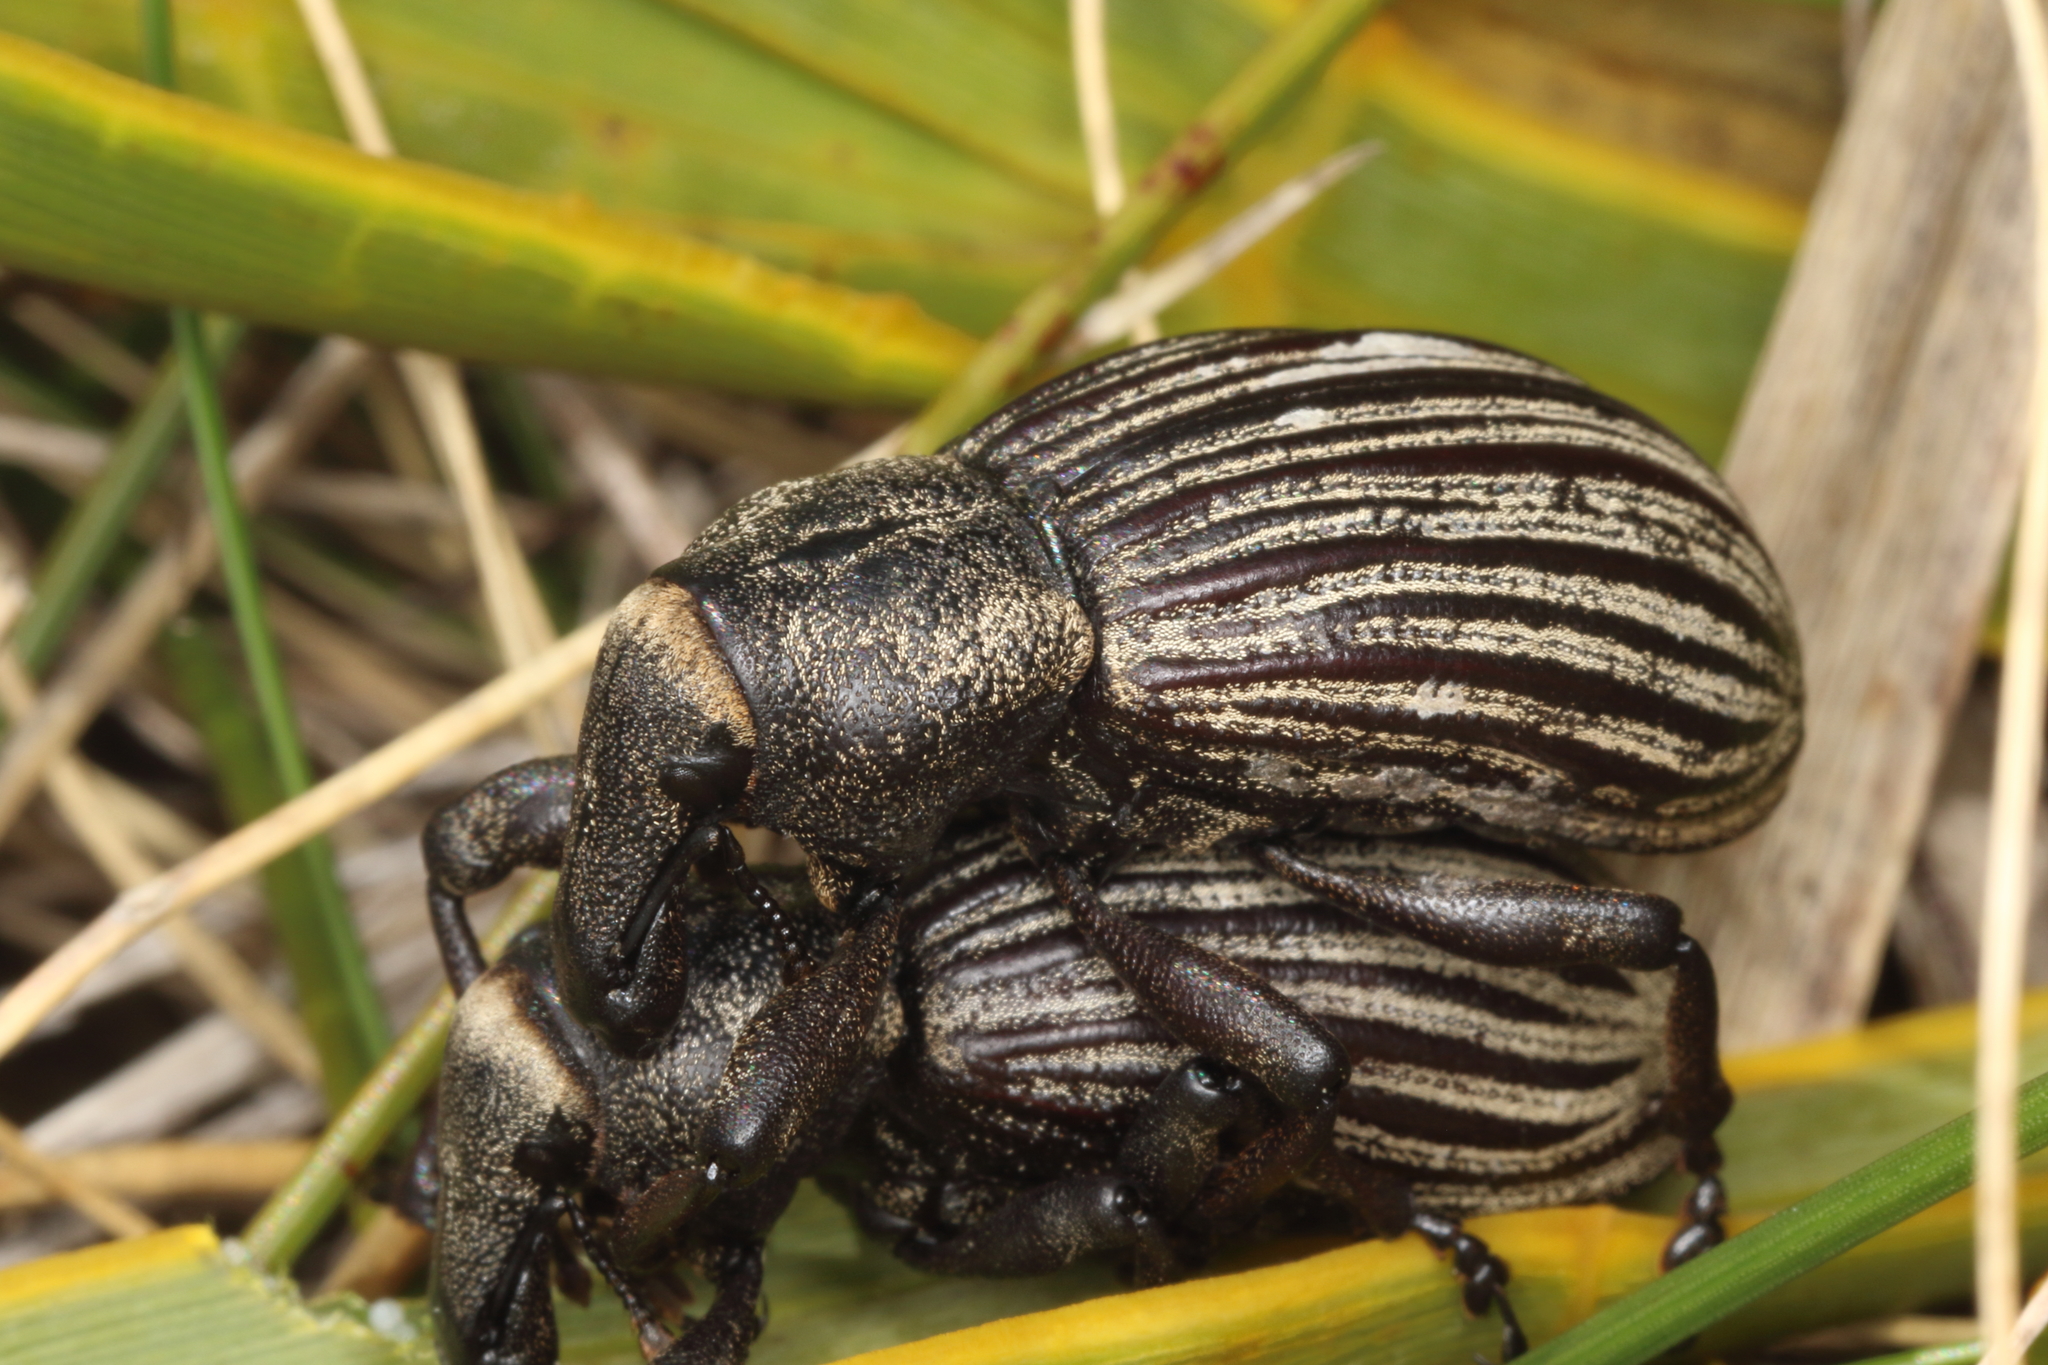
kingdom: Animalia
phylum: Arthropoda
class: Insecta
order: Coleoptera
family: Curculionidae
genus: Lyperobius
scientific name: Lyperobius clarkei
